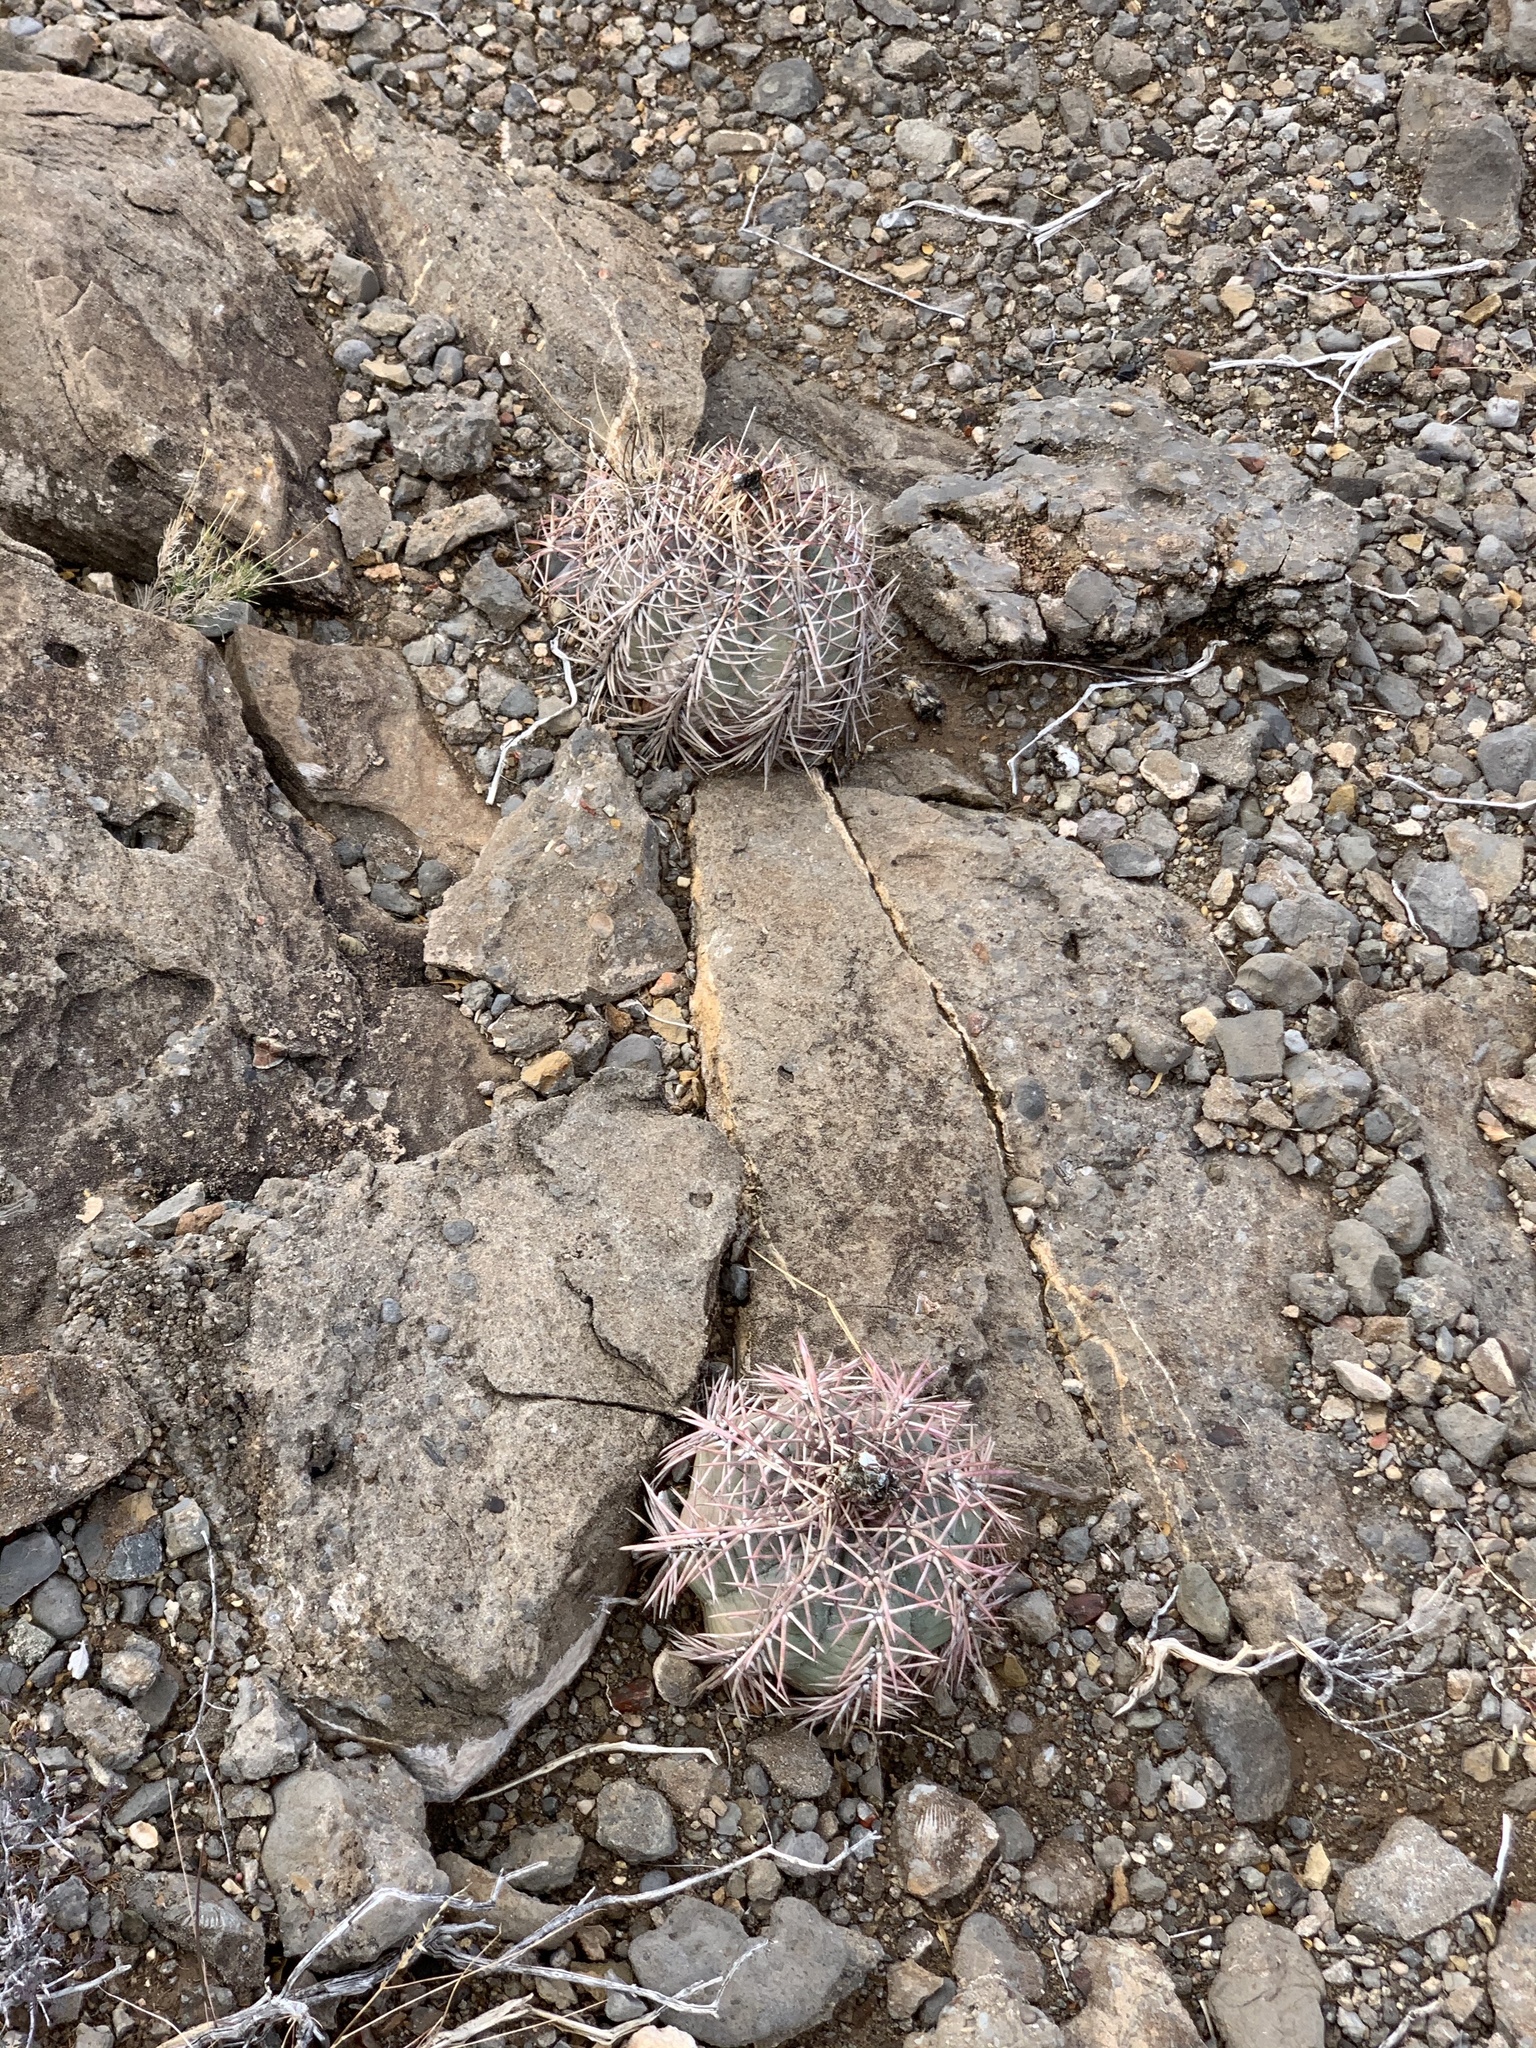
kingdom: Plantae
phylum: Tracheophyta
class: Magnoliopsida
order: Caryophyllales
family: Cactaceae
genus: Echinocactus
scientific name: Echinocactus horizonthalonius
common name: Devilshead
